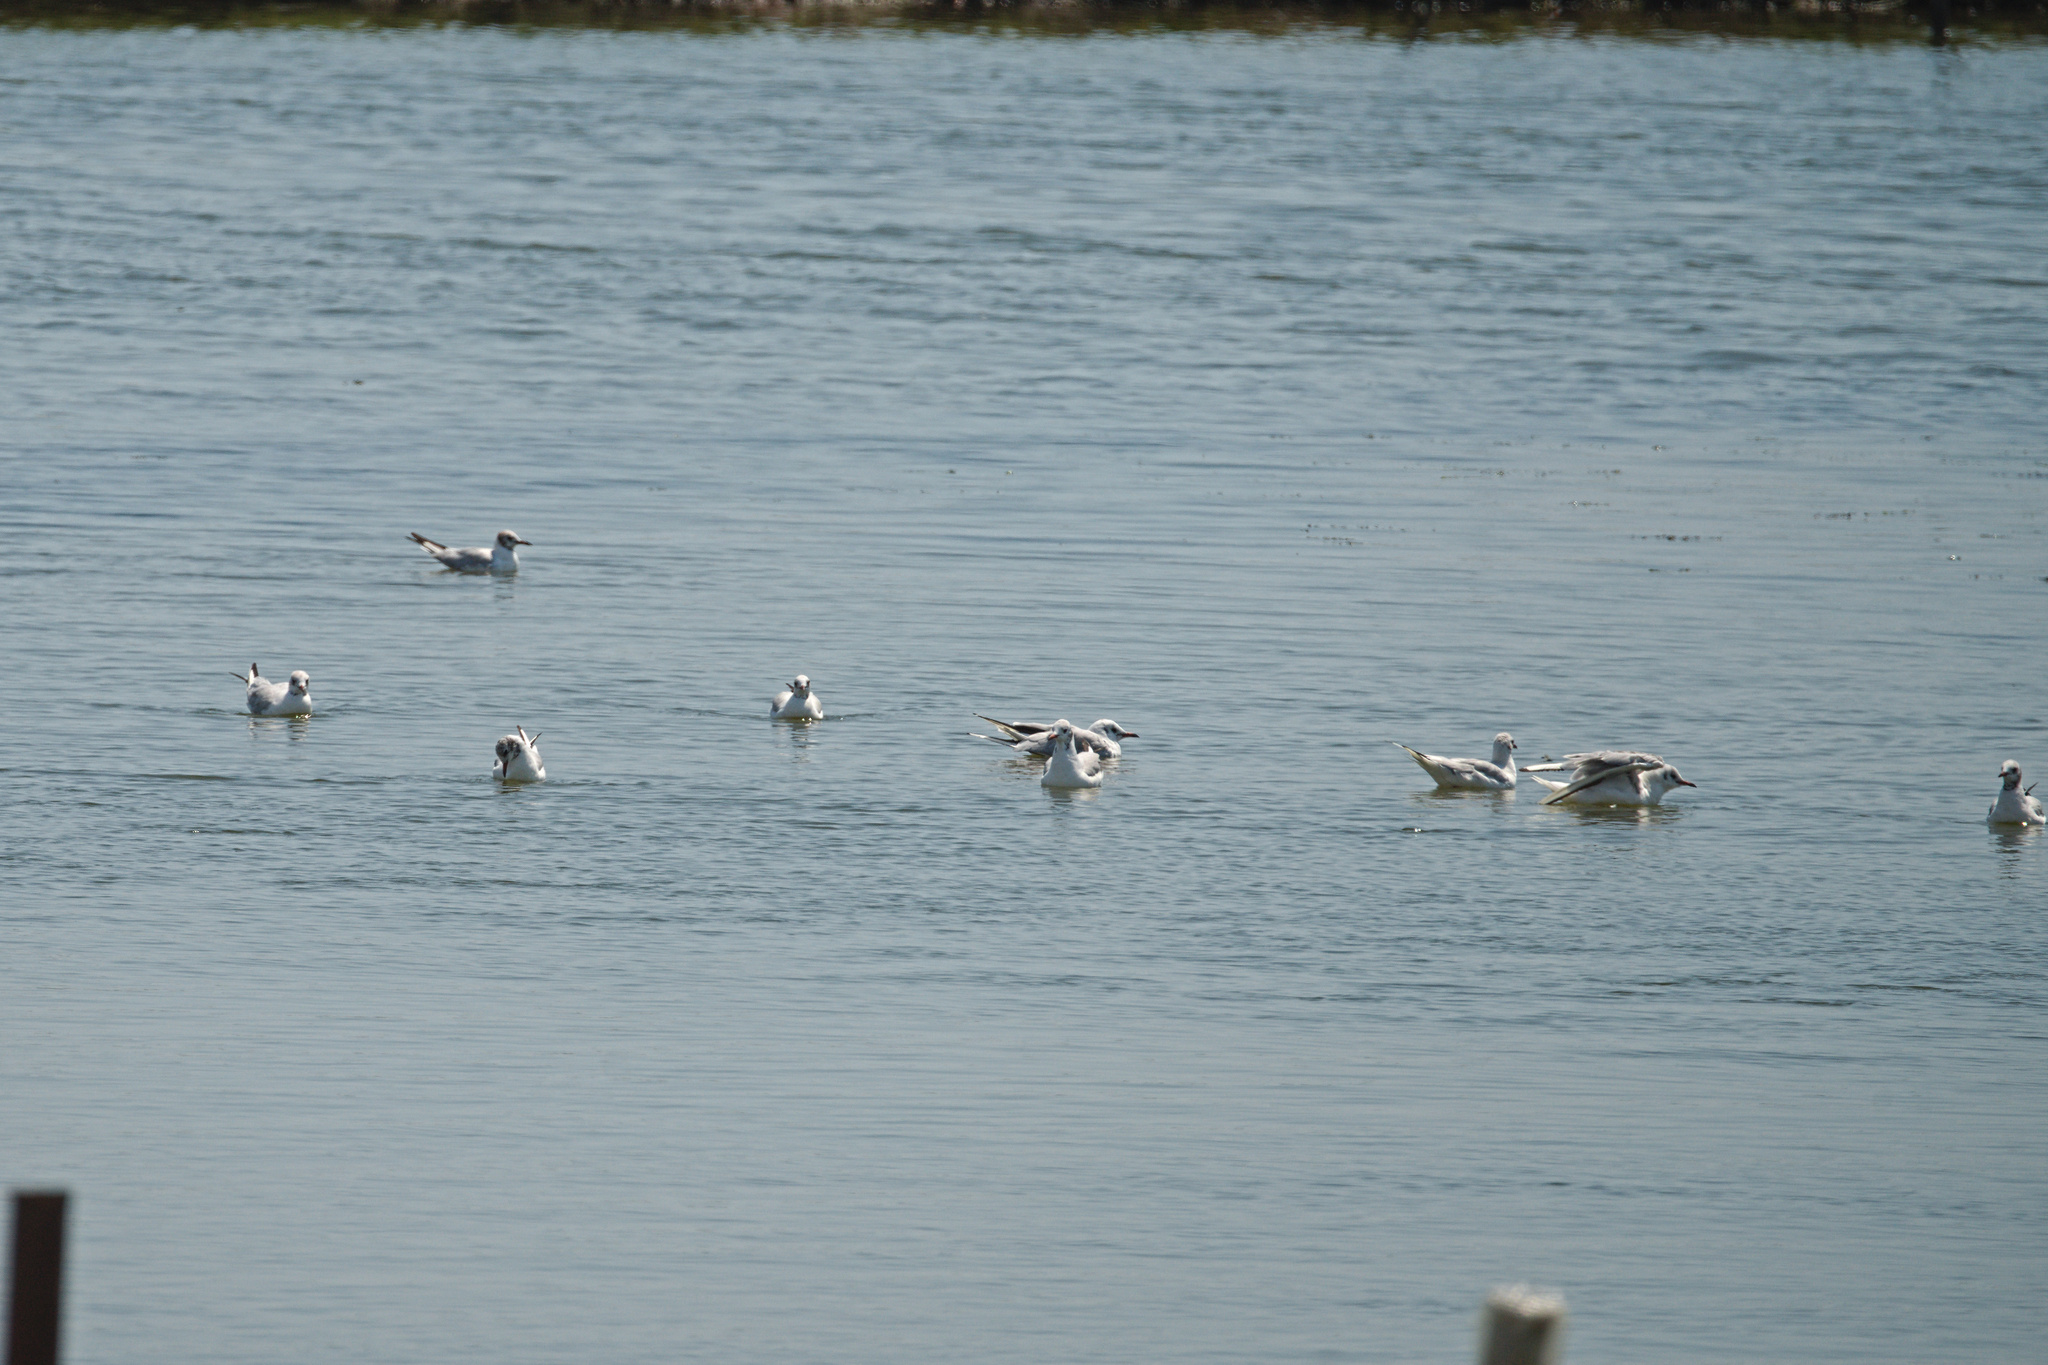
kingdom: Animalia
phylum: Chordata
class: Aves
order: Charadriiformes
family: Laridae
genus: Chroicocephalus
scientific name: Chroicocephalus ridibundus
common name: Black-headed gull
